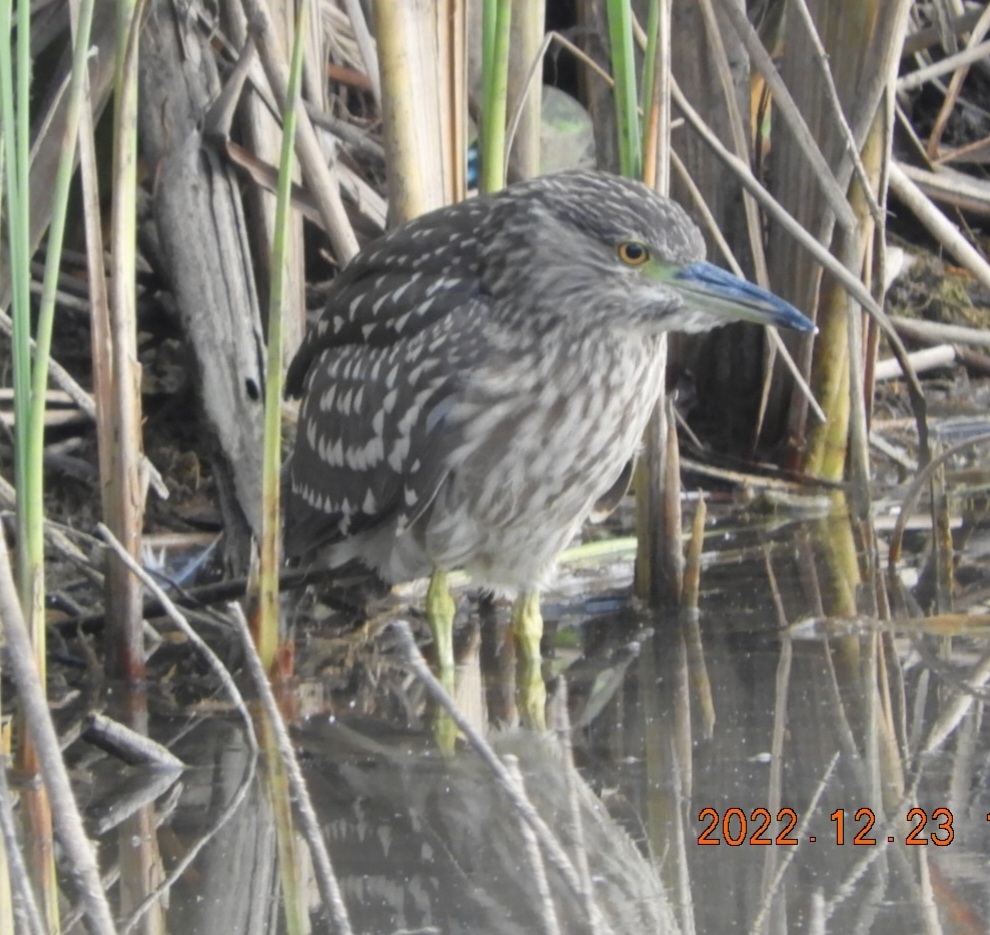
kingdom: Animalia
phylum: Chordata
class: Aves
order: Pelecaniformes
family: Ardeidae
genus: Nycticorax
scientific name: Nycticorax nycticorax
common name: Black-crowned night heron
